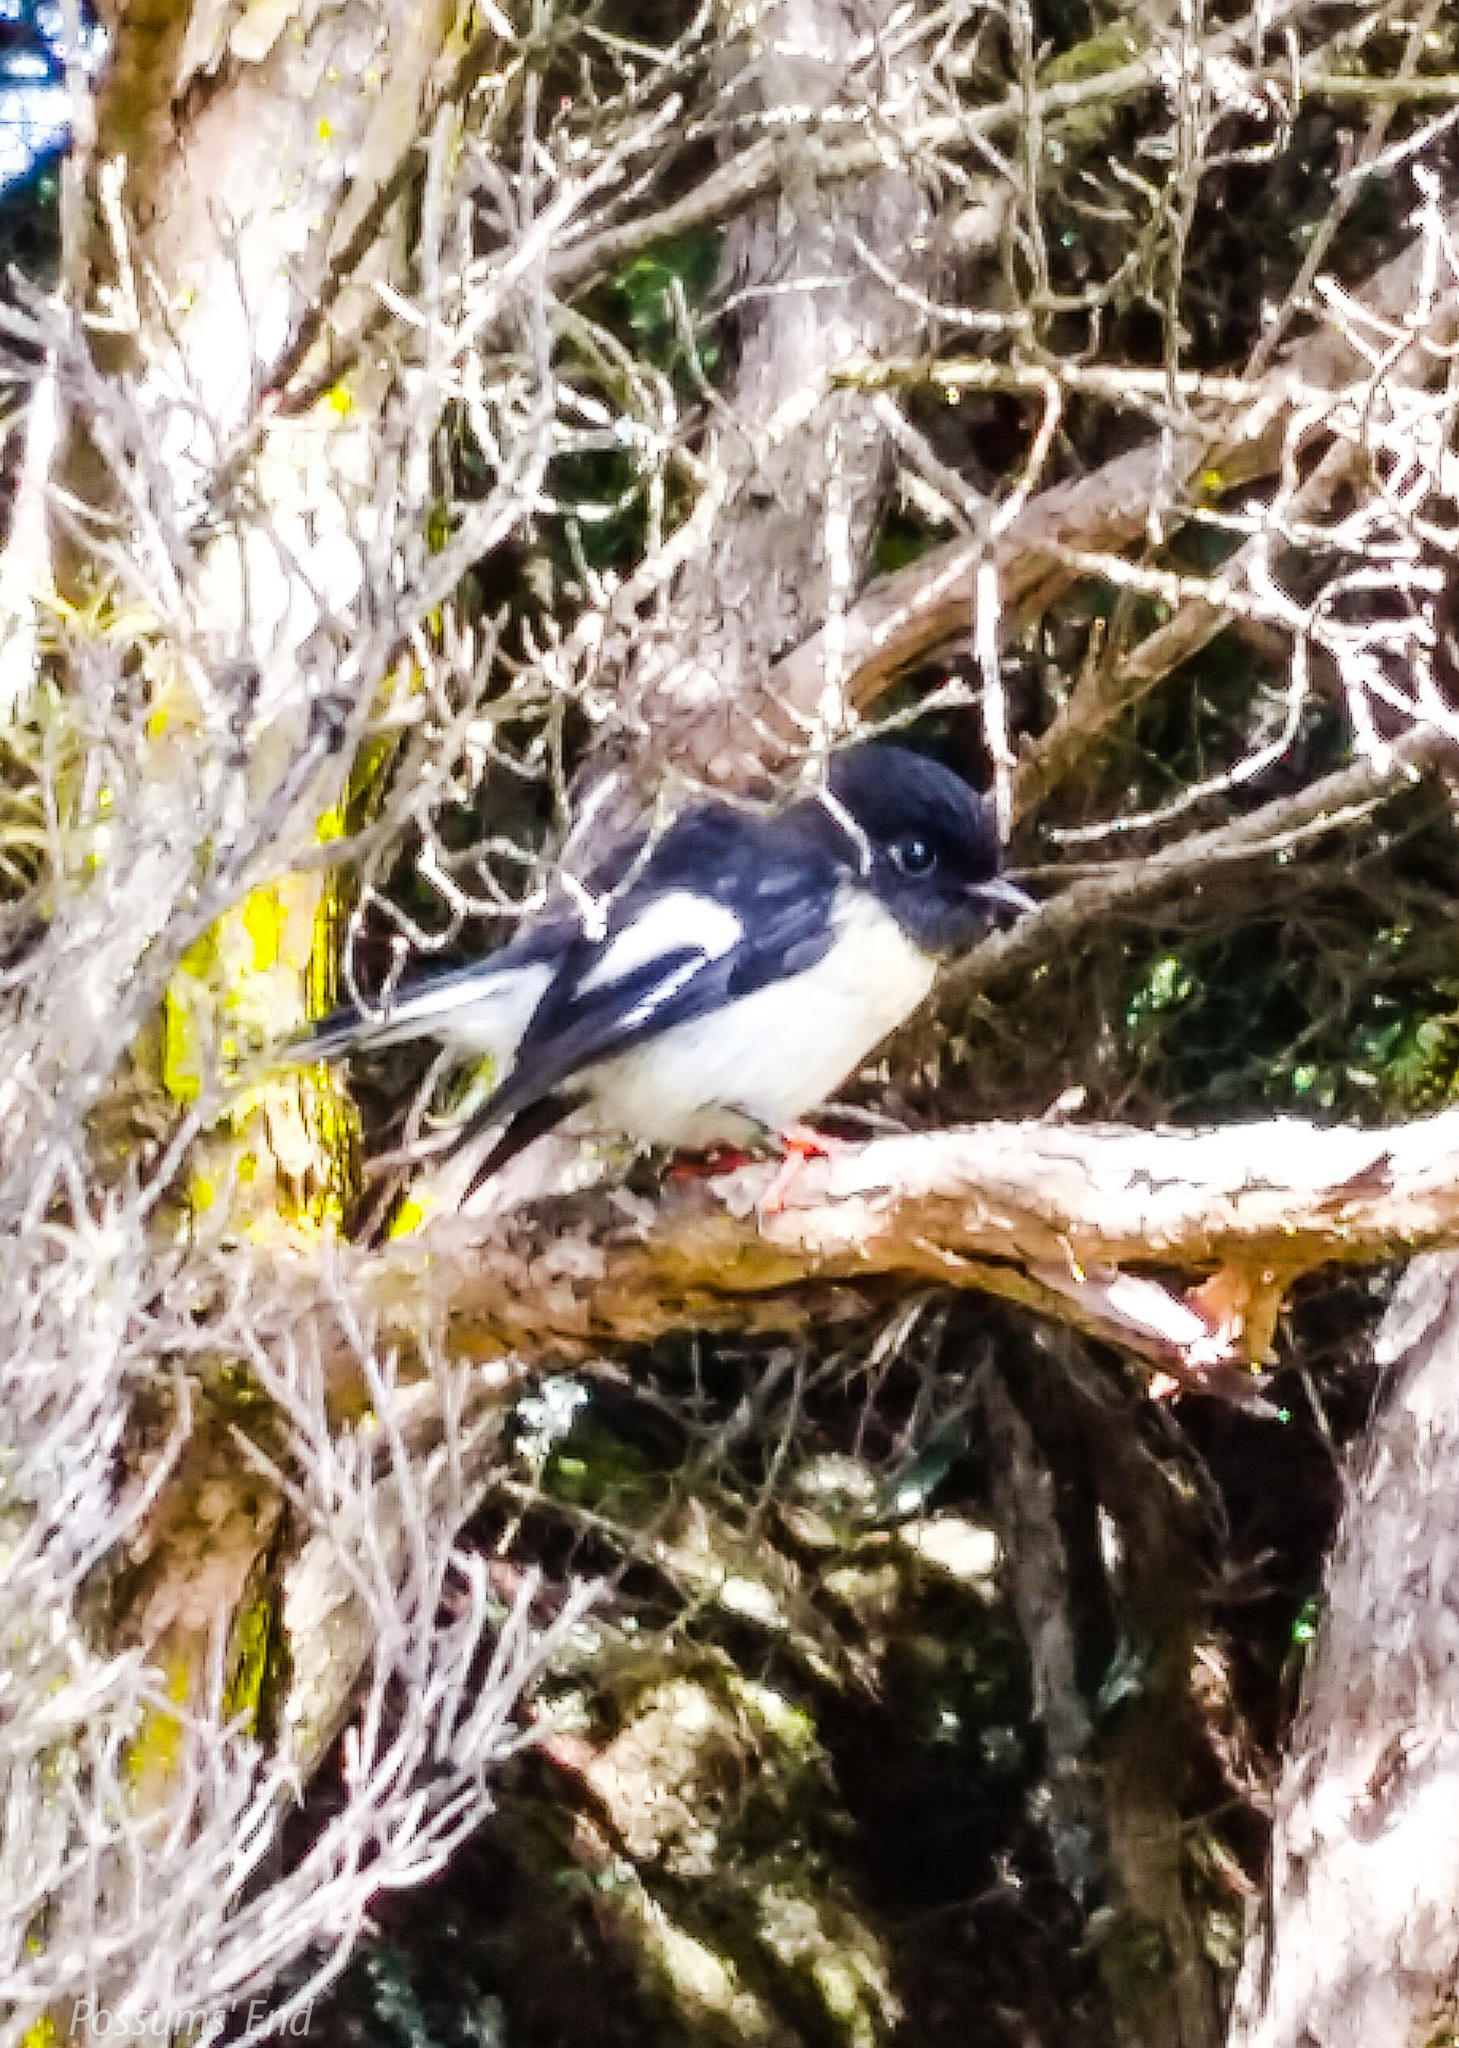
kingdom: Animalia
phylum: Chordata
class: Aves
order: Passeriformes
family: Petroicidae
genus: Petroica
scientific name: Petroica macrocephala
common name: Tomtit
